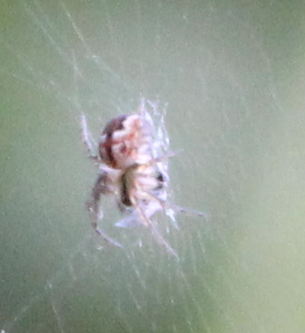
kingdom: Animalia
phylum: Arthropoda
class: Arachnida
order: Araneae
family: Araneidae
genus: Mangora
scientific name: Mangora acalypha
